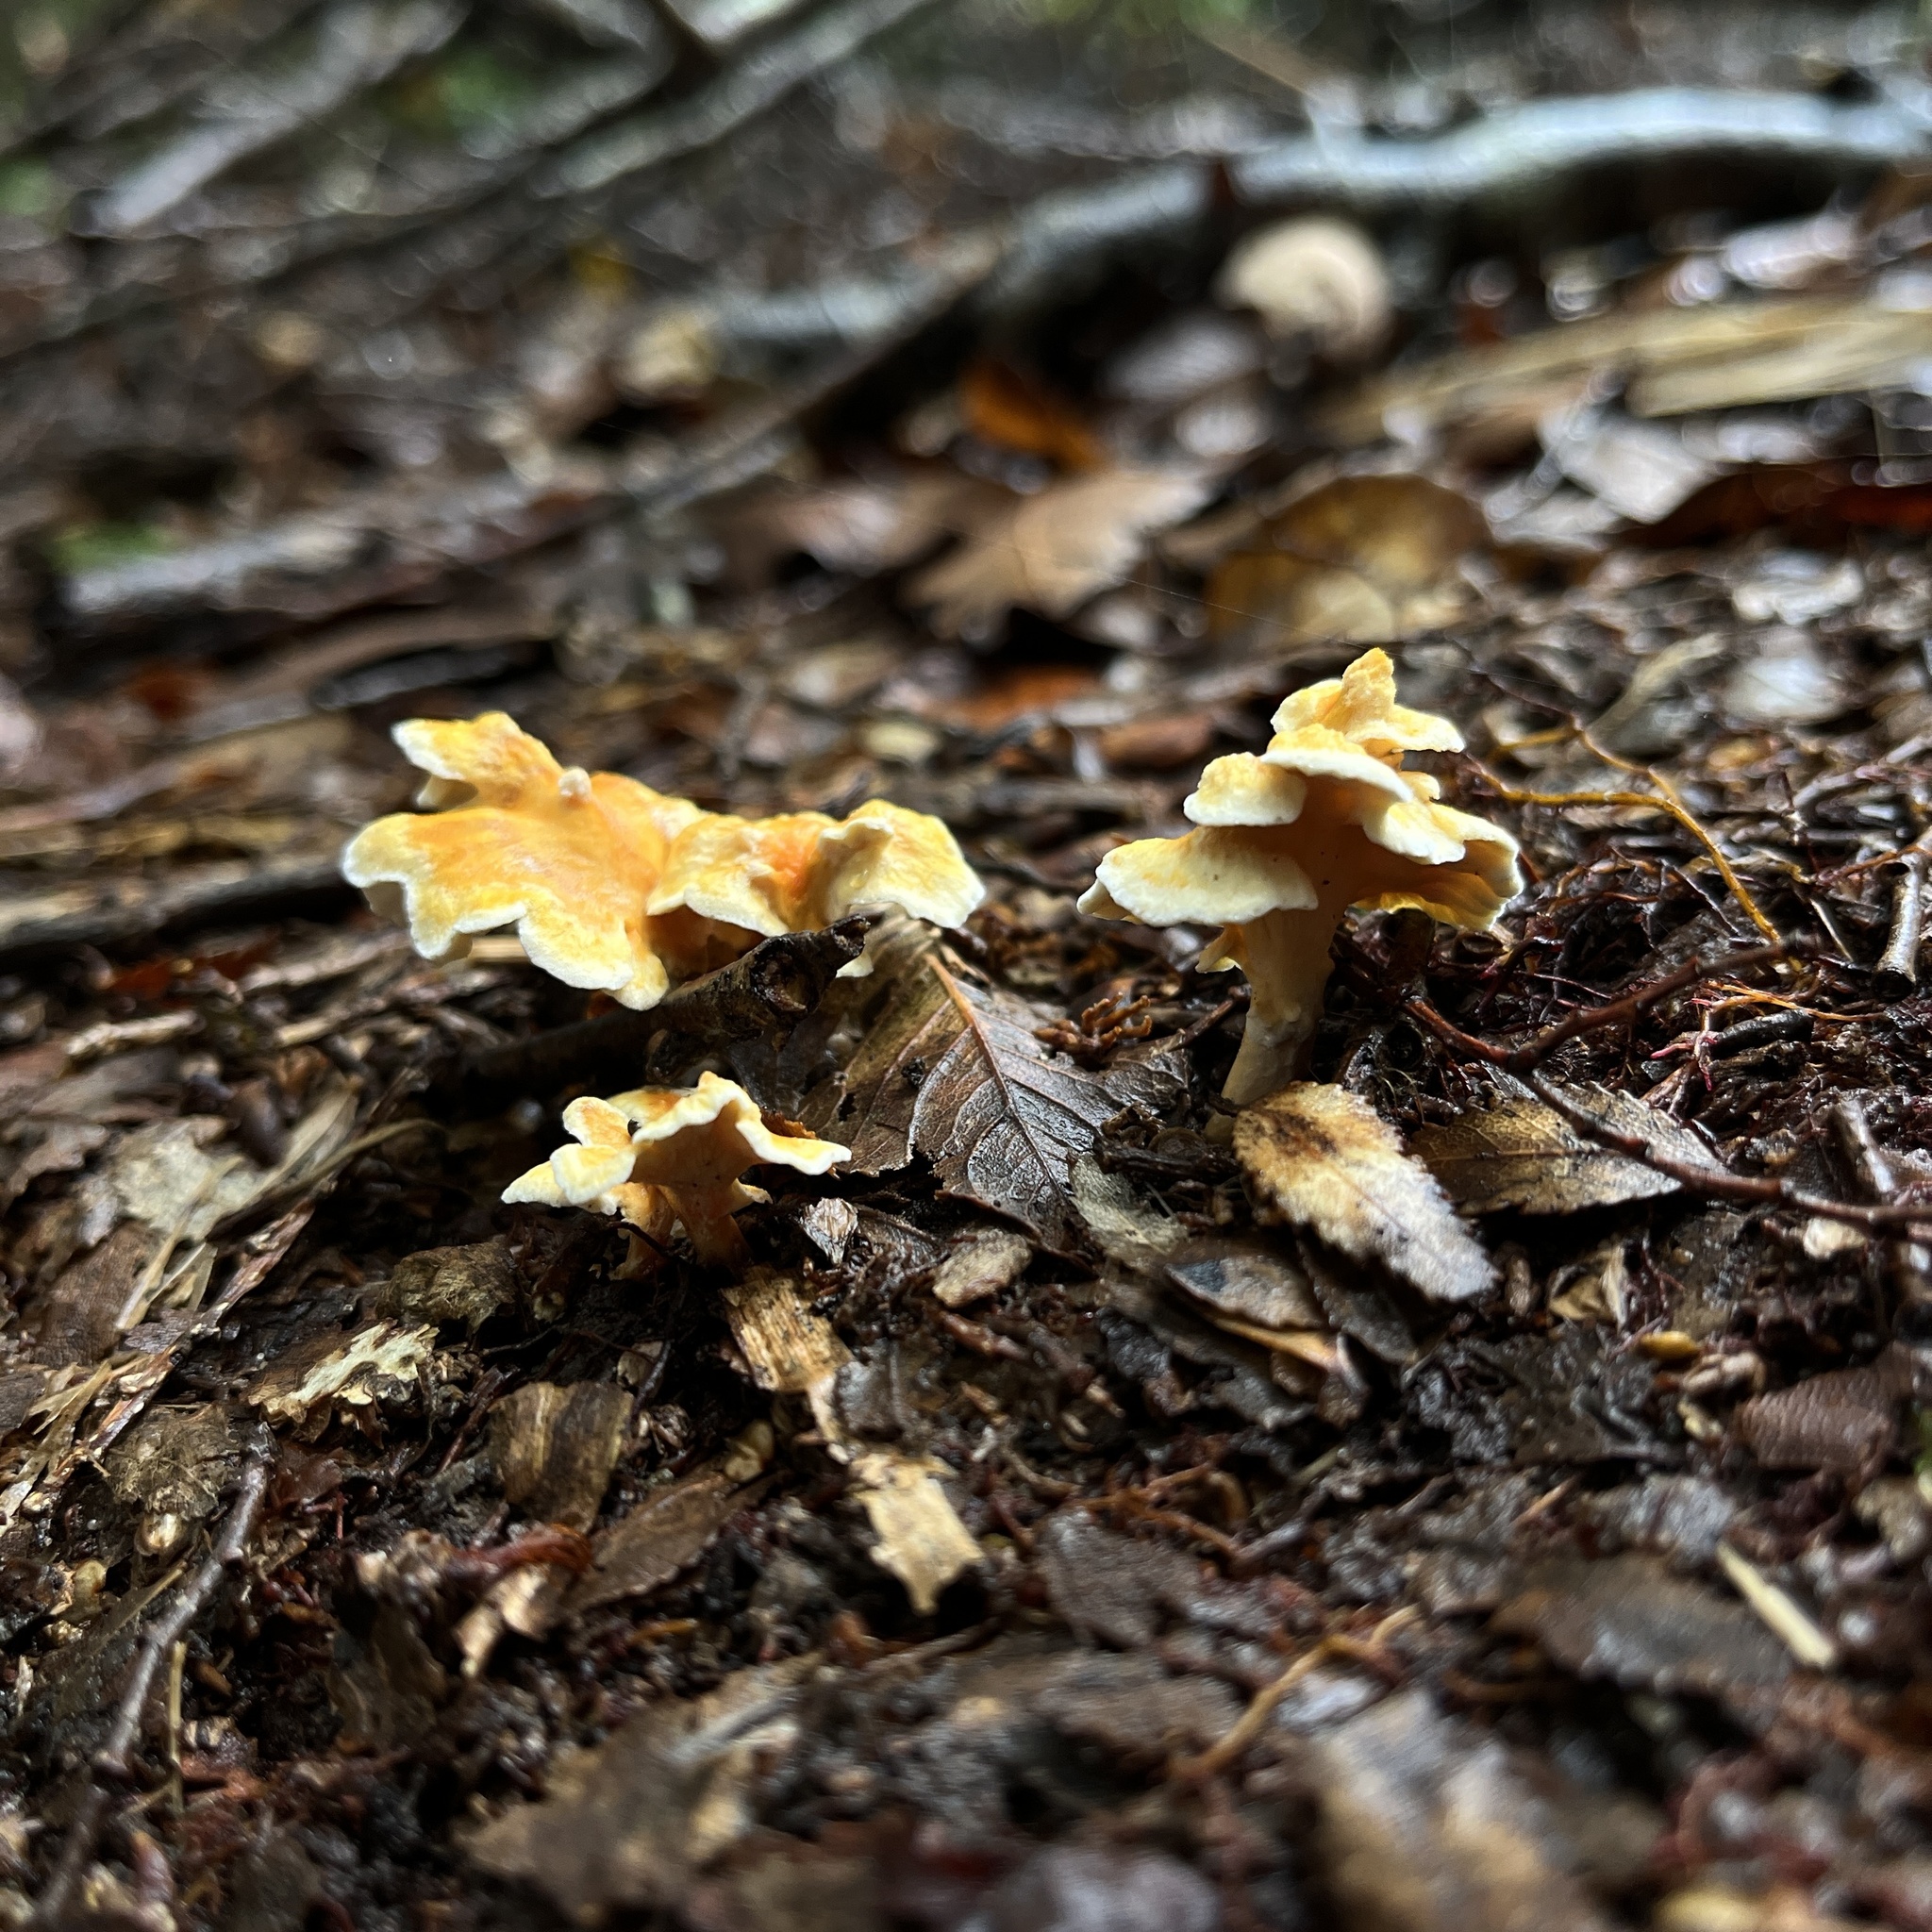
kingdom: Fungi
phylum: Basidiomycota
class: Agaricomycetes
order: Amylocorticiales
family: Amylocorticiaceae
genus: Podoserpula
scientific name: Podoserpula aliweni
